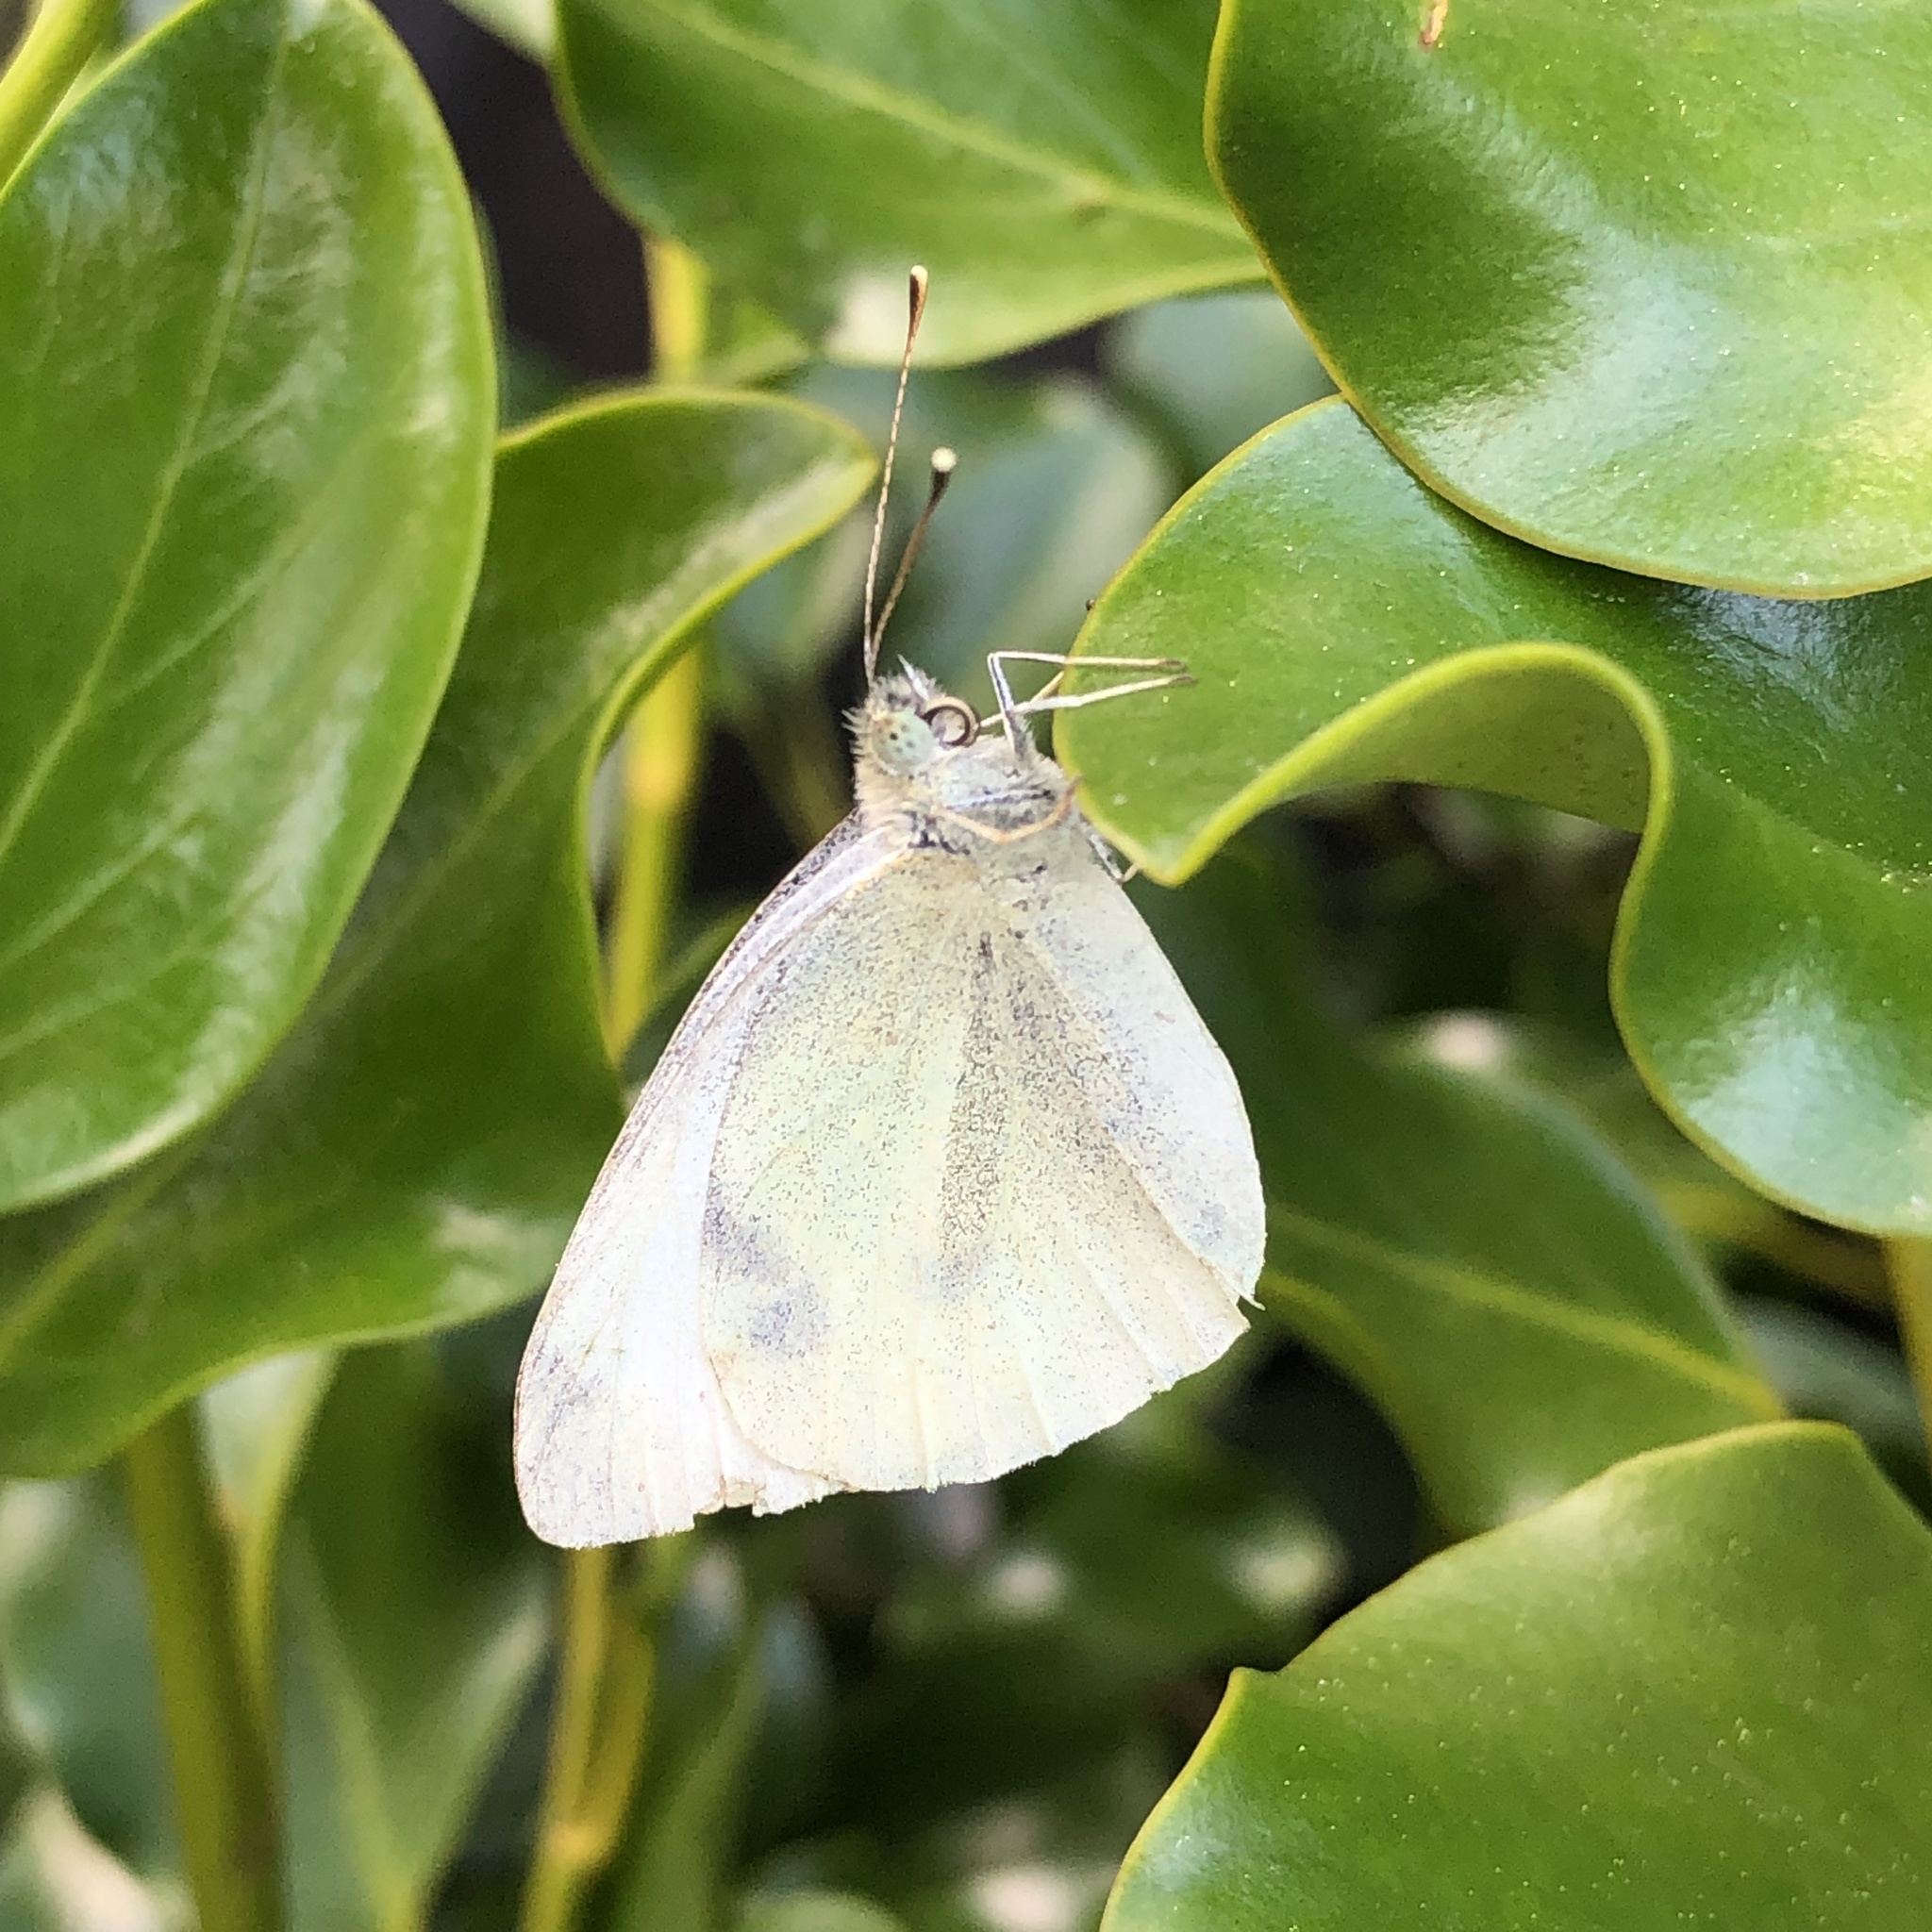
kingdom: Animalia
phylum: Arthropoda
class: Insecta
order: Lepidoptera
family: Pieridae
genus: Pieris
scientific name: Pieris rapae
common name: Small white
